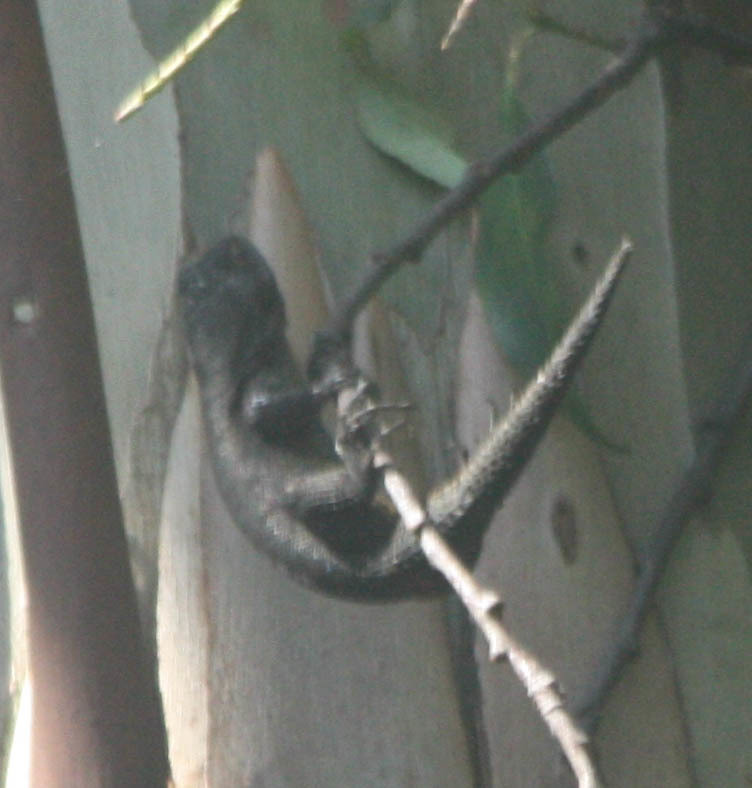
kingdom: Animalia
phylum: Chordata
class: Squamata
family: Phrynosomatidae
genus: Sceloporus
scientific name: Sceloporus grammicus
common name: Mesquite lizard
